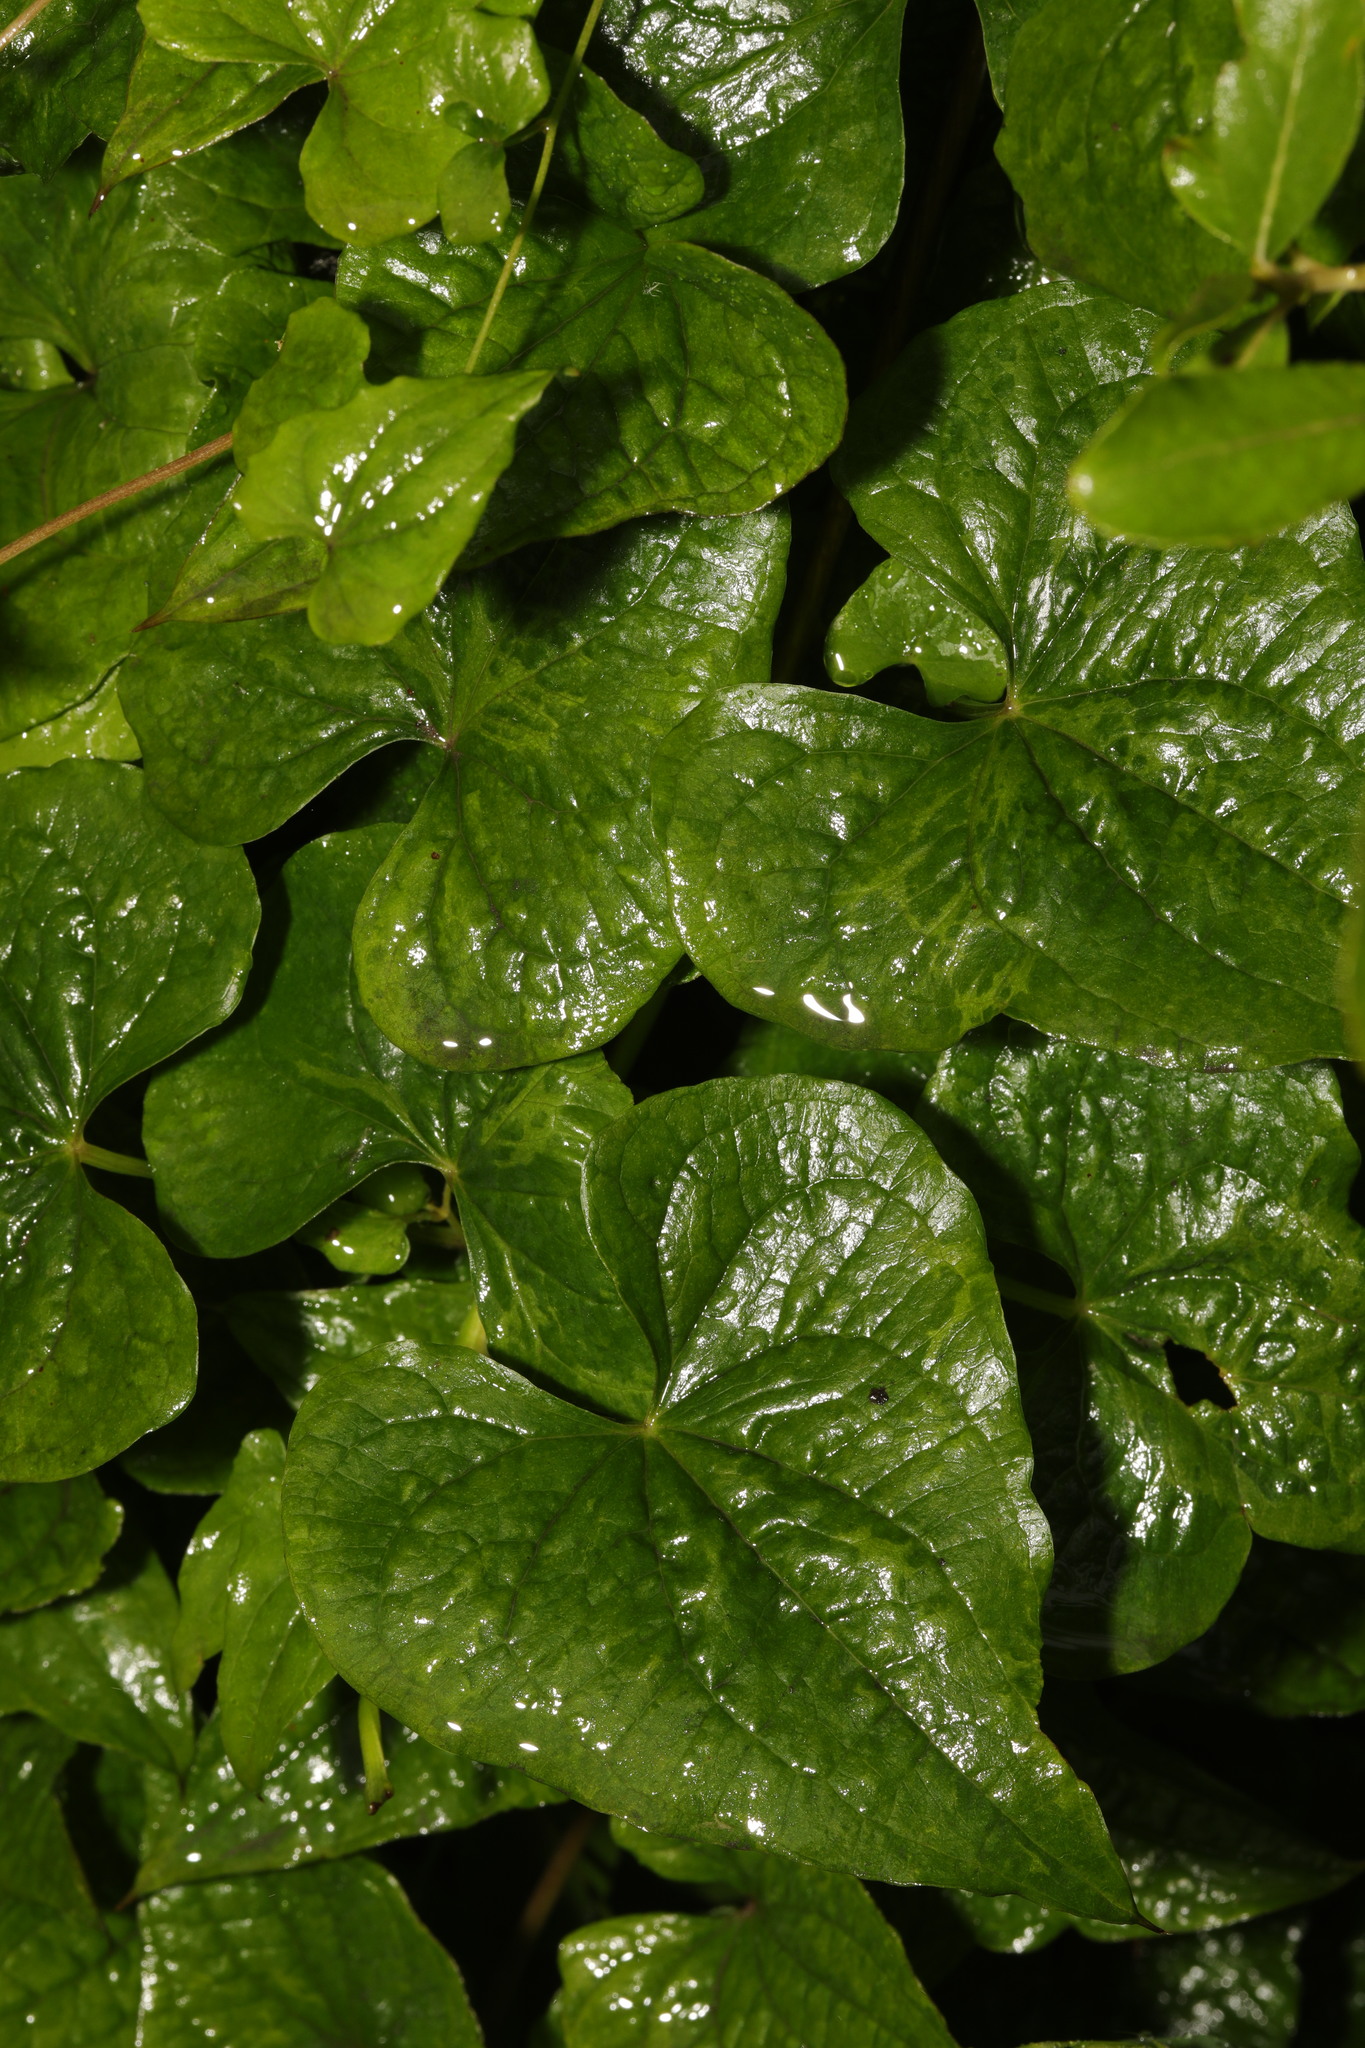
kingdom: Plantae
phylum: Tracheophyta
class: Liliopsida
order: Dioscoreales
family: Dioscoreaceae
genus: Dioscorea
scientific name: Dioscorea communis
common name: Black-bindweed
